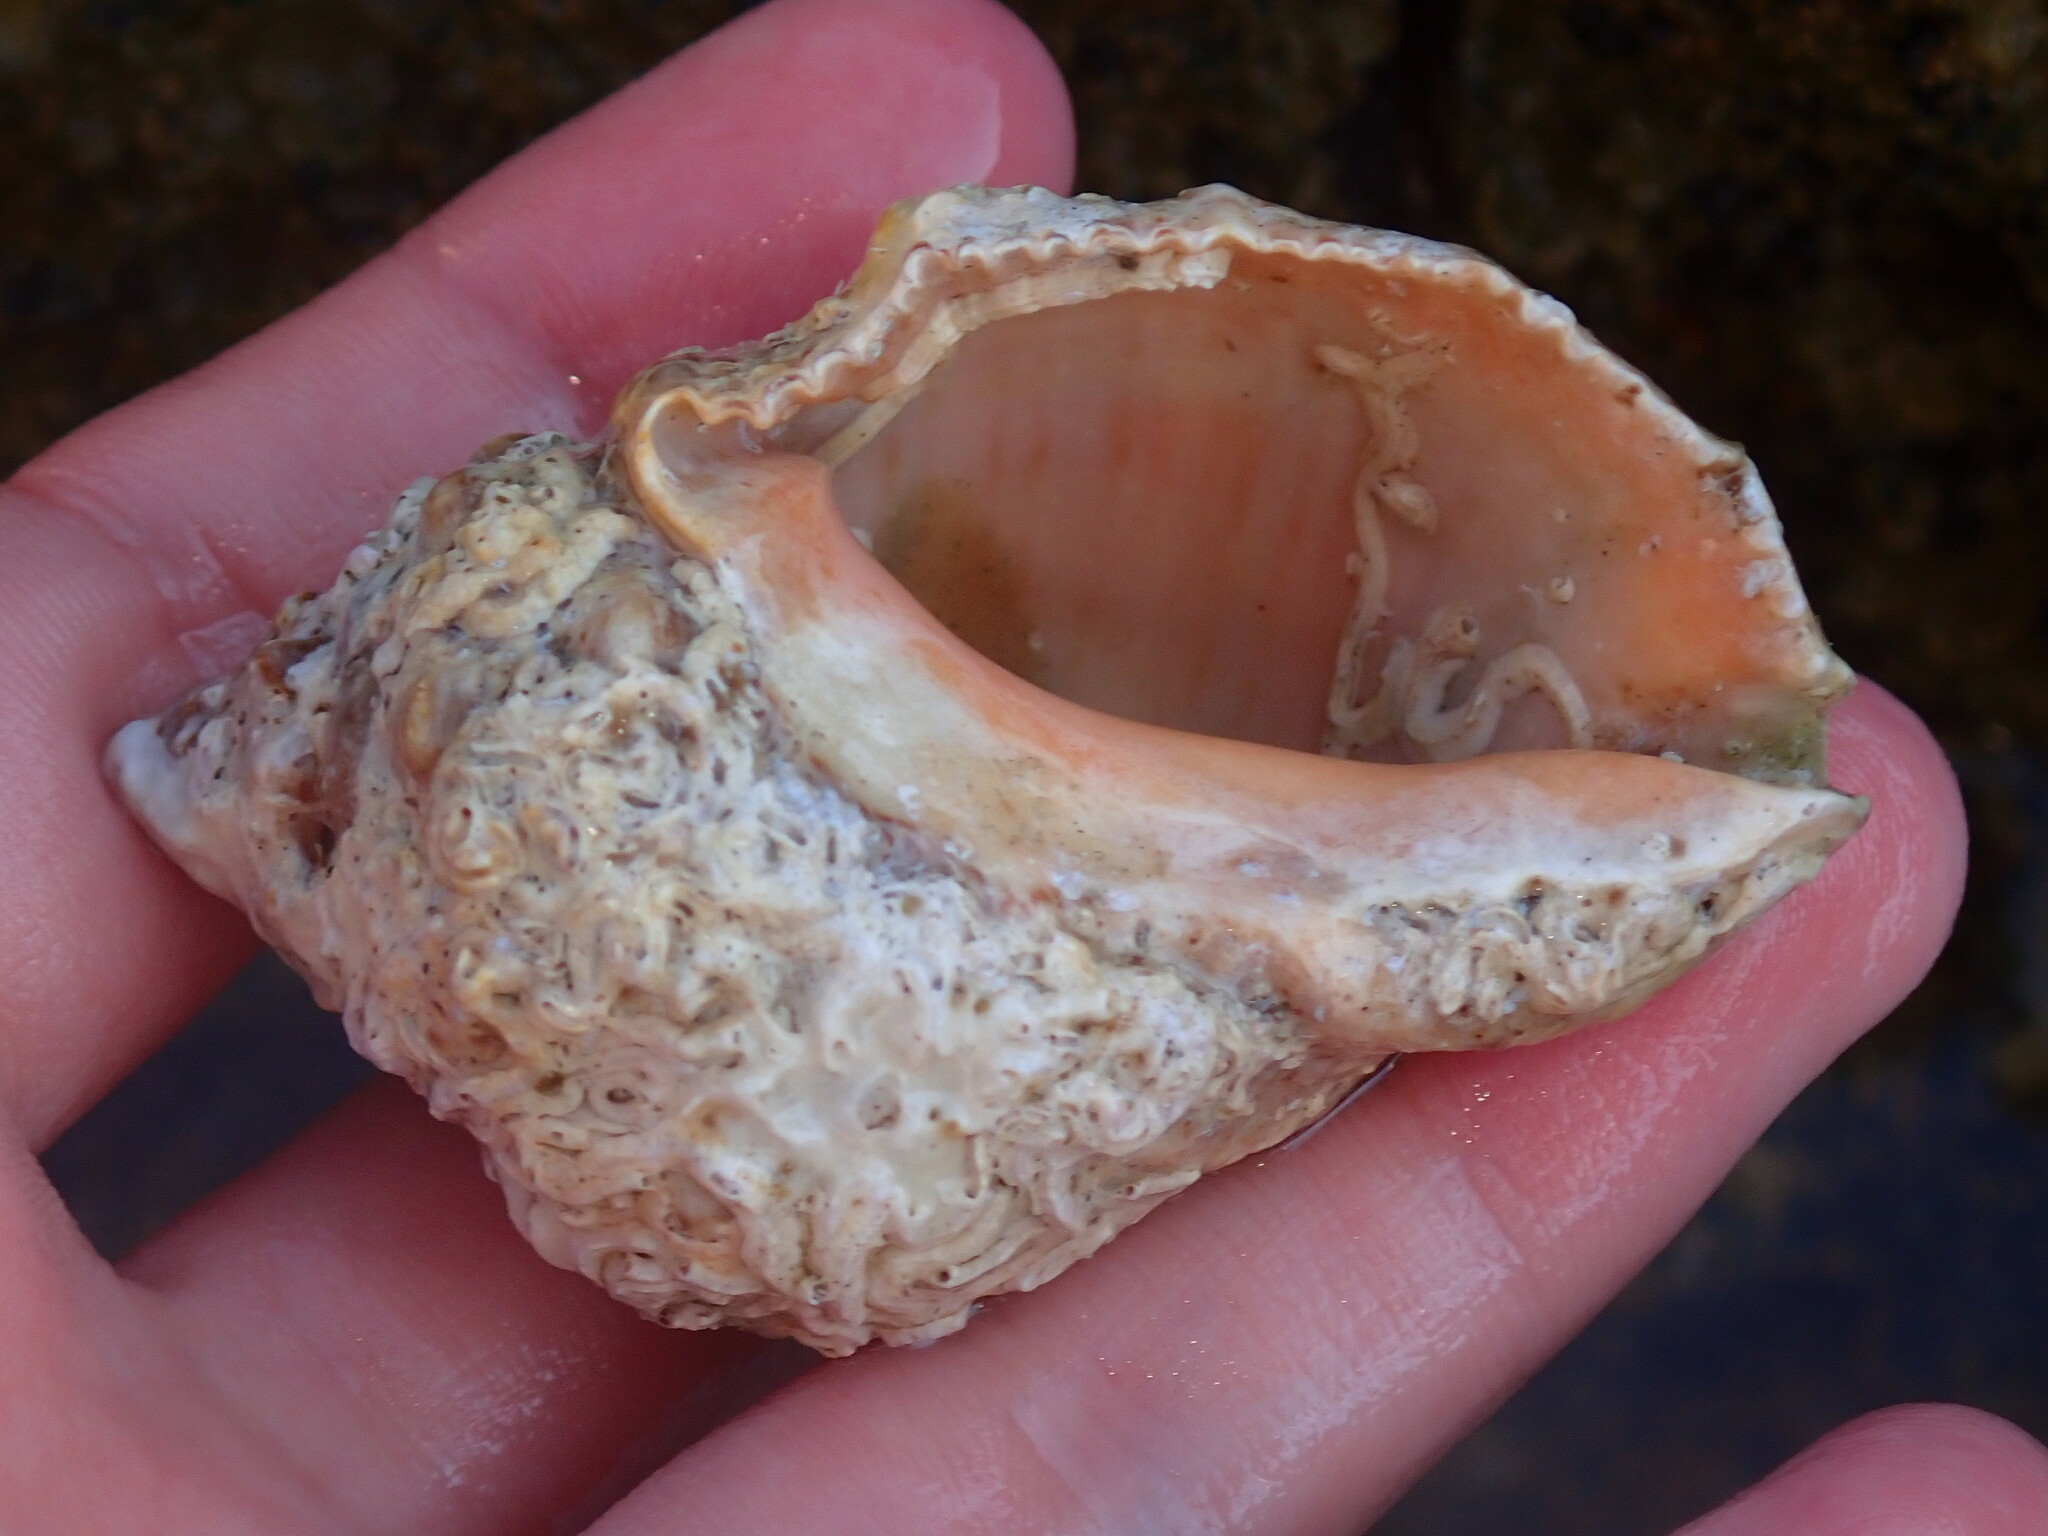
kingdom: Animalia
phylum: Mollusca
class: Gastropoda
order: Neogastropoda
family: Muricidae
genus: Stramonita
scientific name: Stramonita haemastoma
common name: Florida dog winkle
